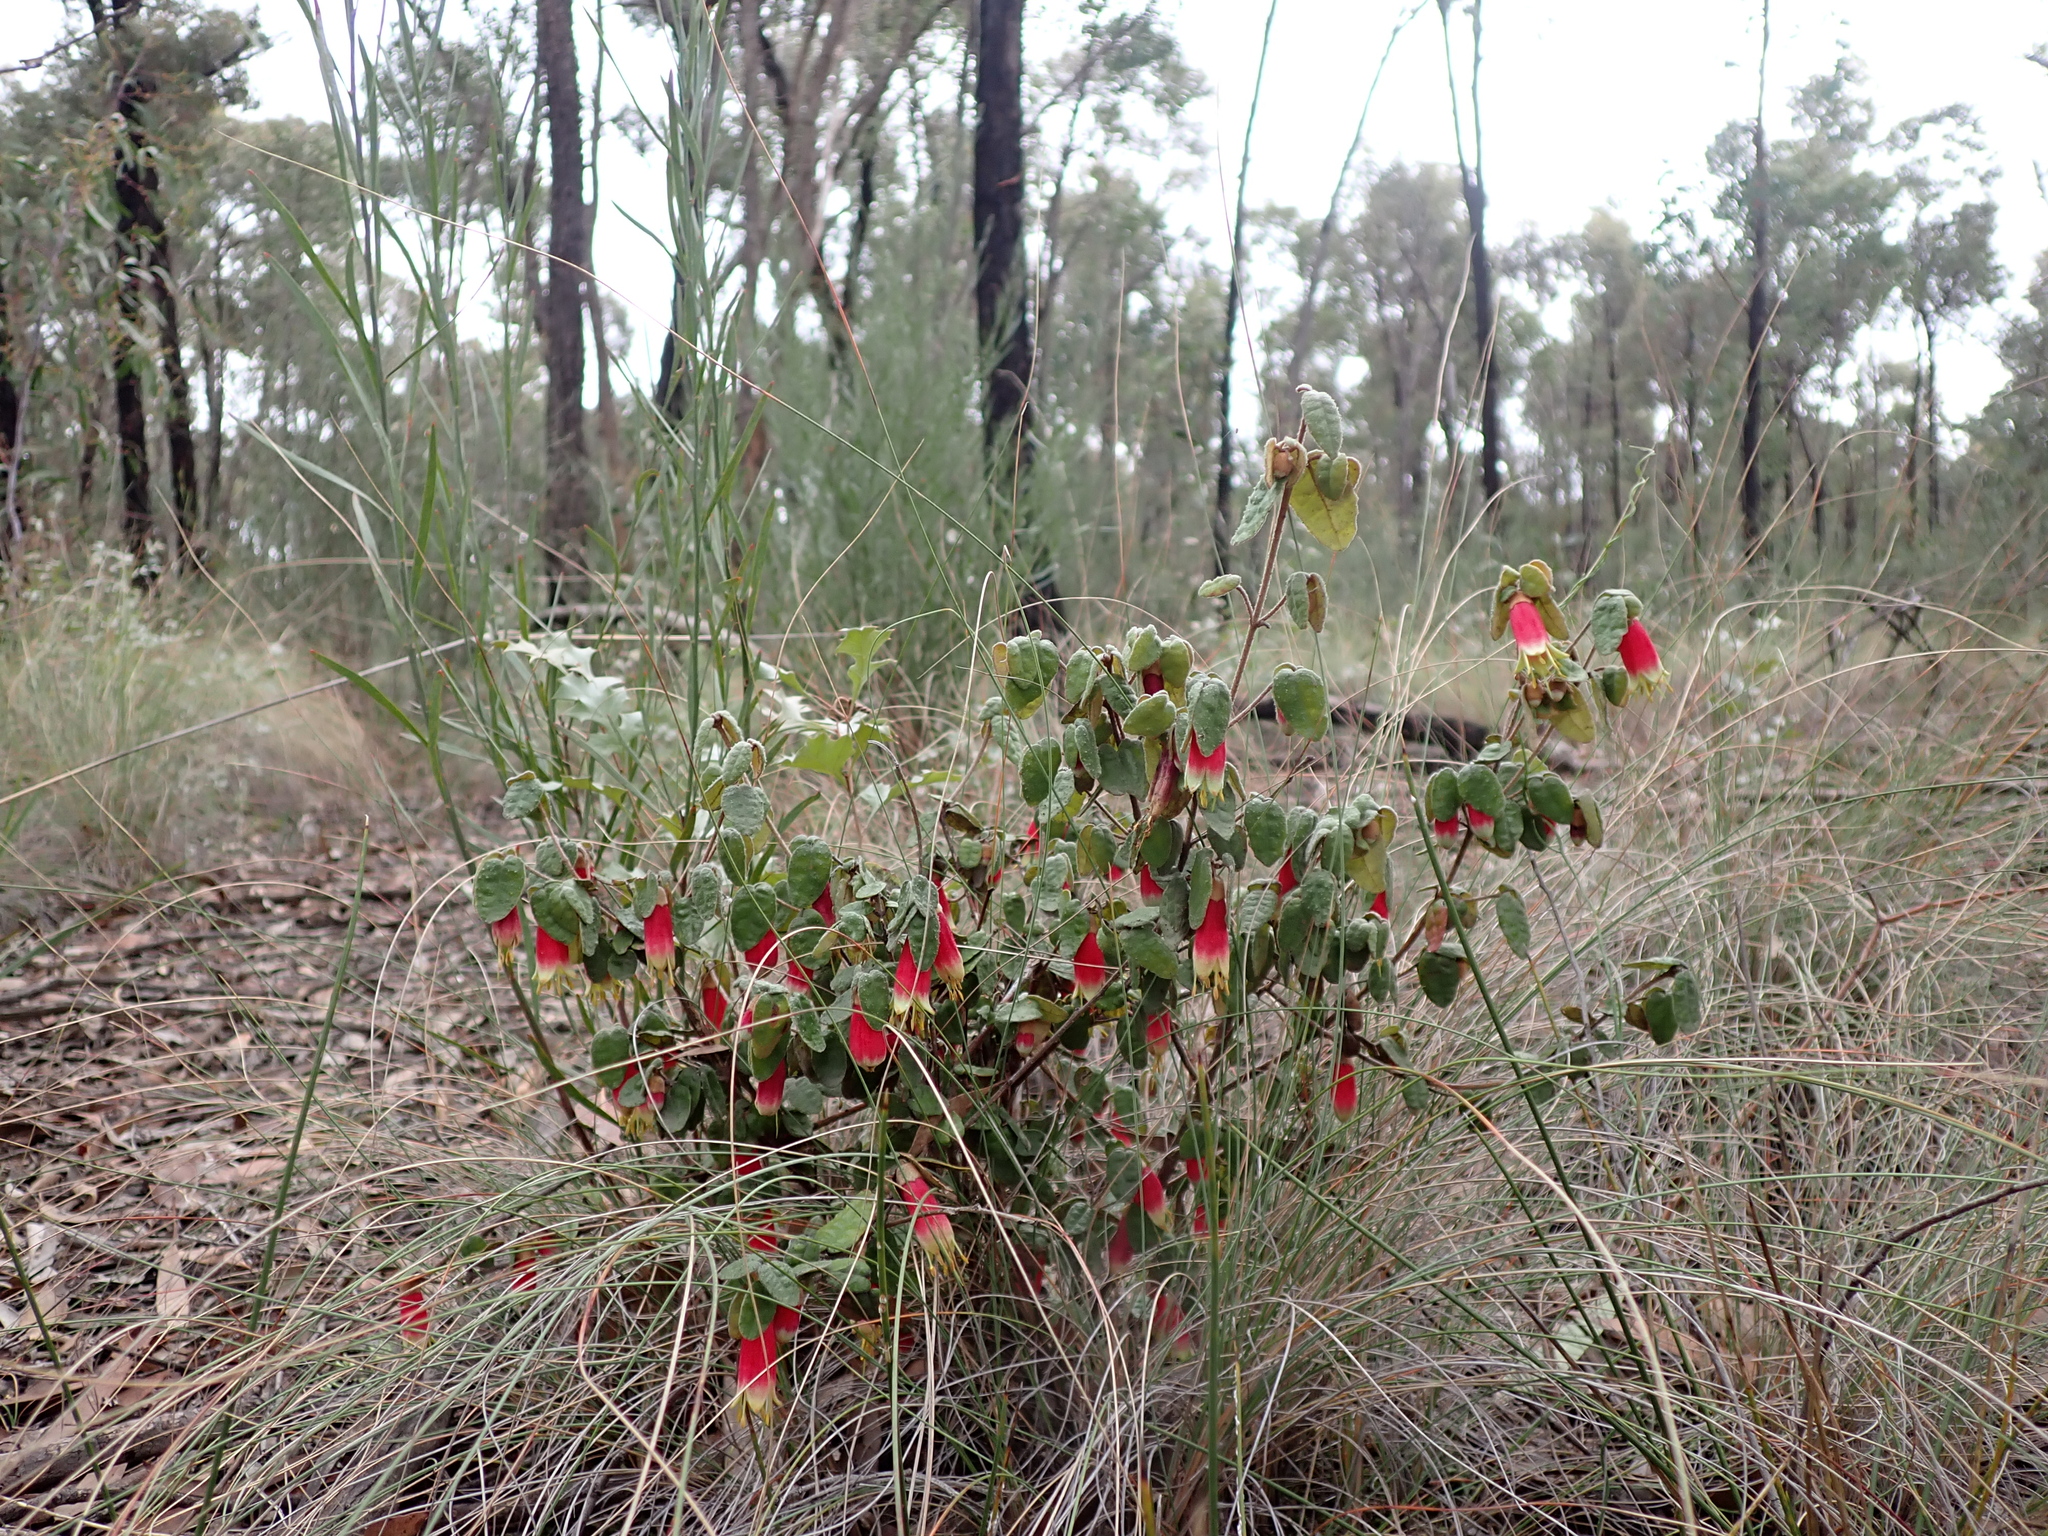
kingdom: Plantae
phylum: Tracheophyta
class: Magnoliopsida
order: Sapindales
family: Rutaceae
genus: Correa
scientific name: Correa reflexa
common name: Common correa
